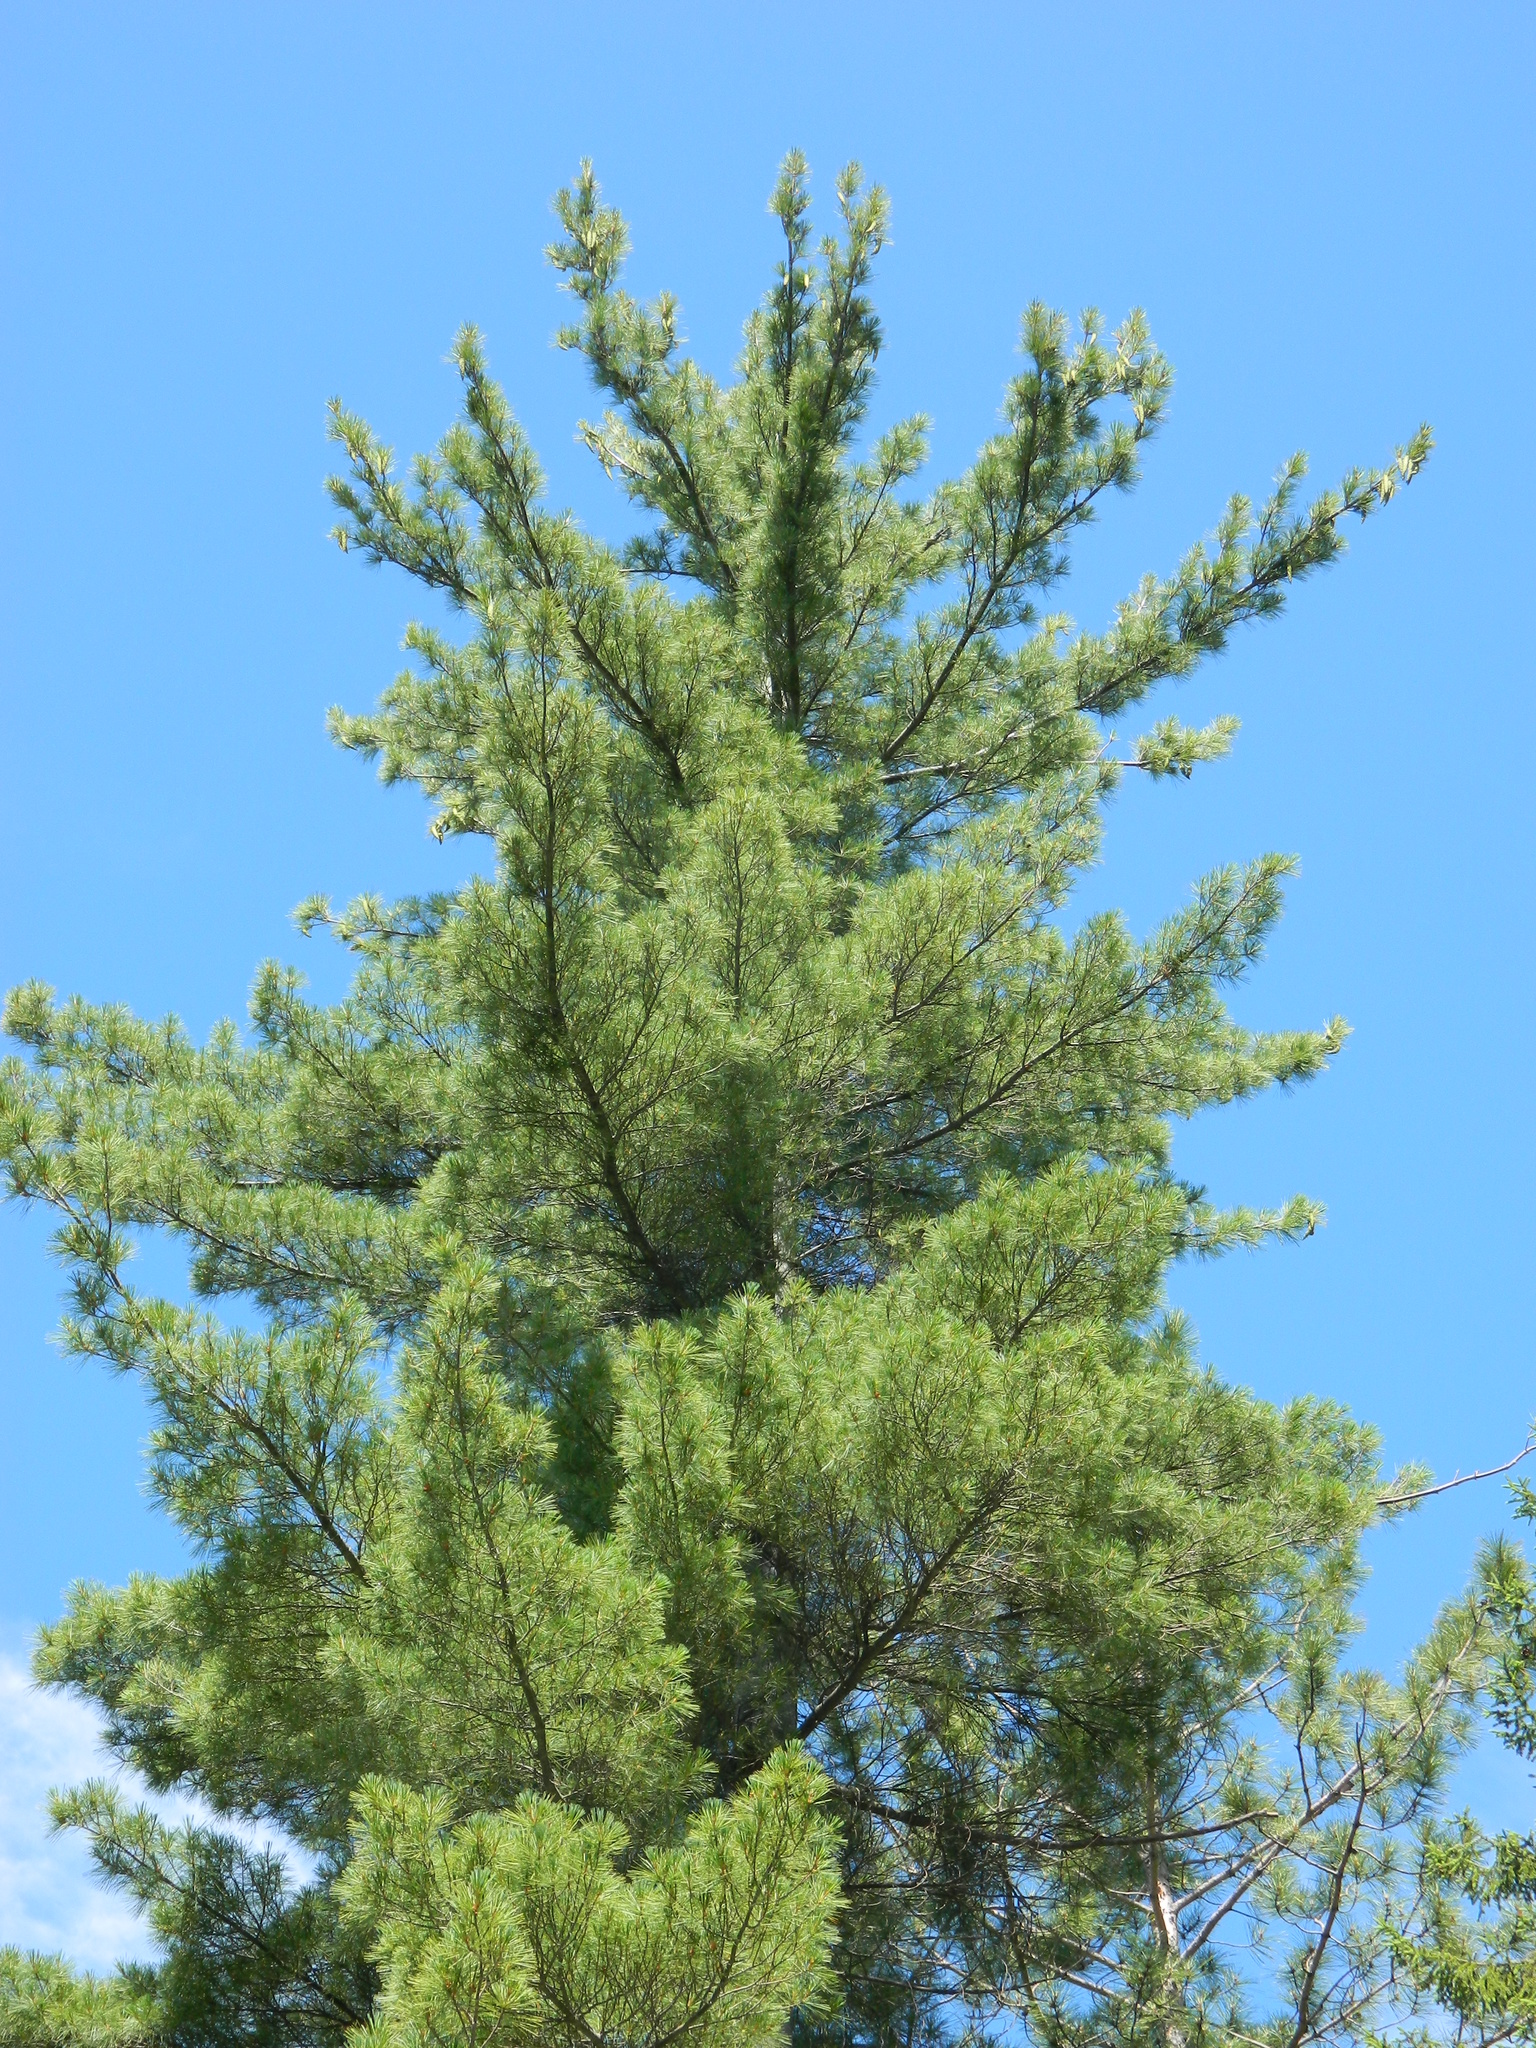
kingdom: Plantae
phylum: Tracheophyta
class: Pinopsida
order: Pinales
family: Pinaceae
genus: Pinus
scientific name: Pinus strobus
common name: Weymouth pine
